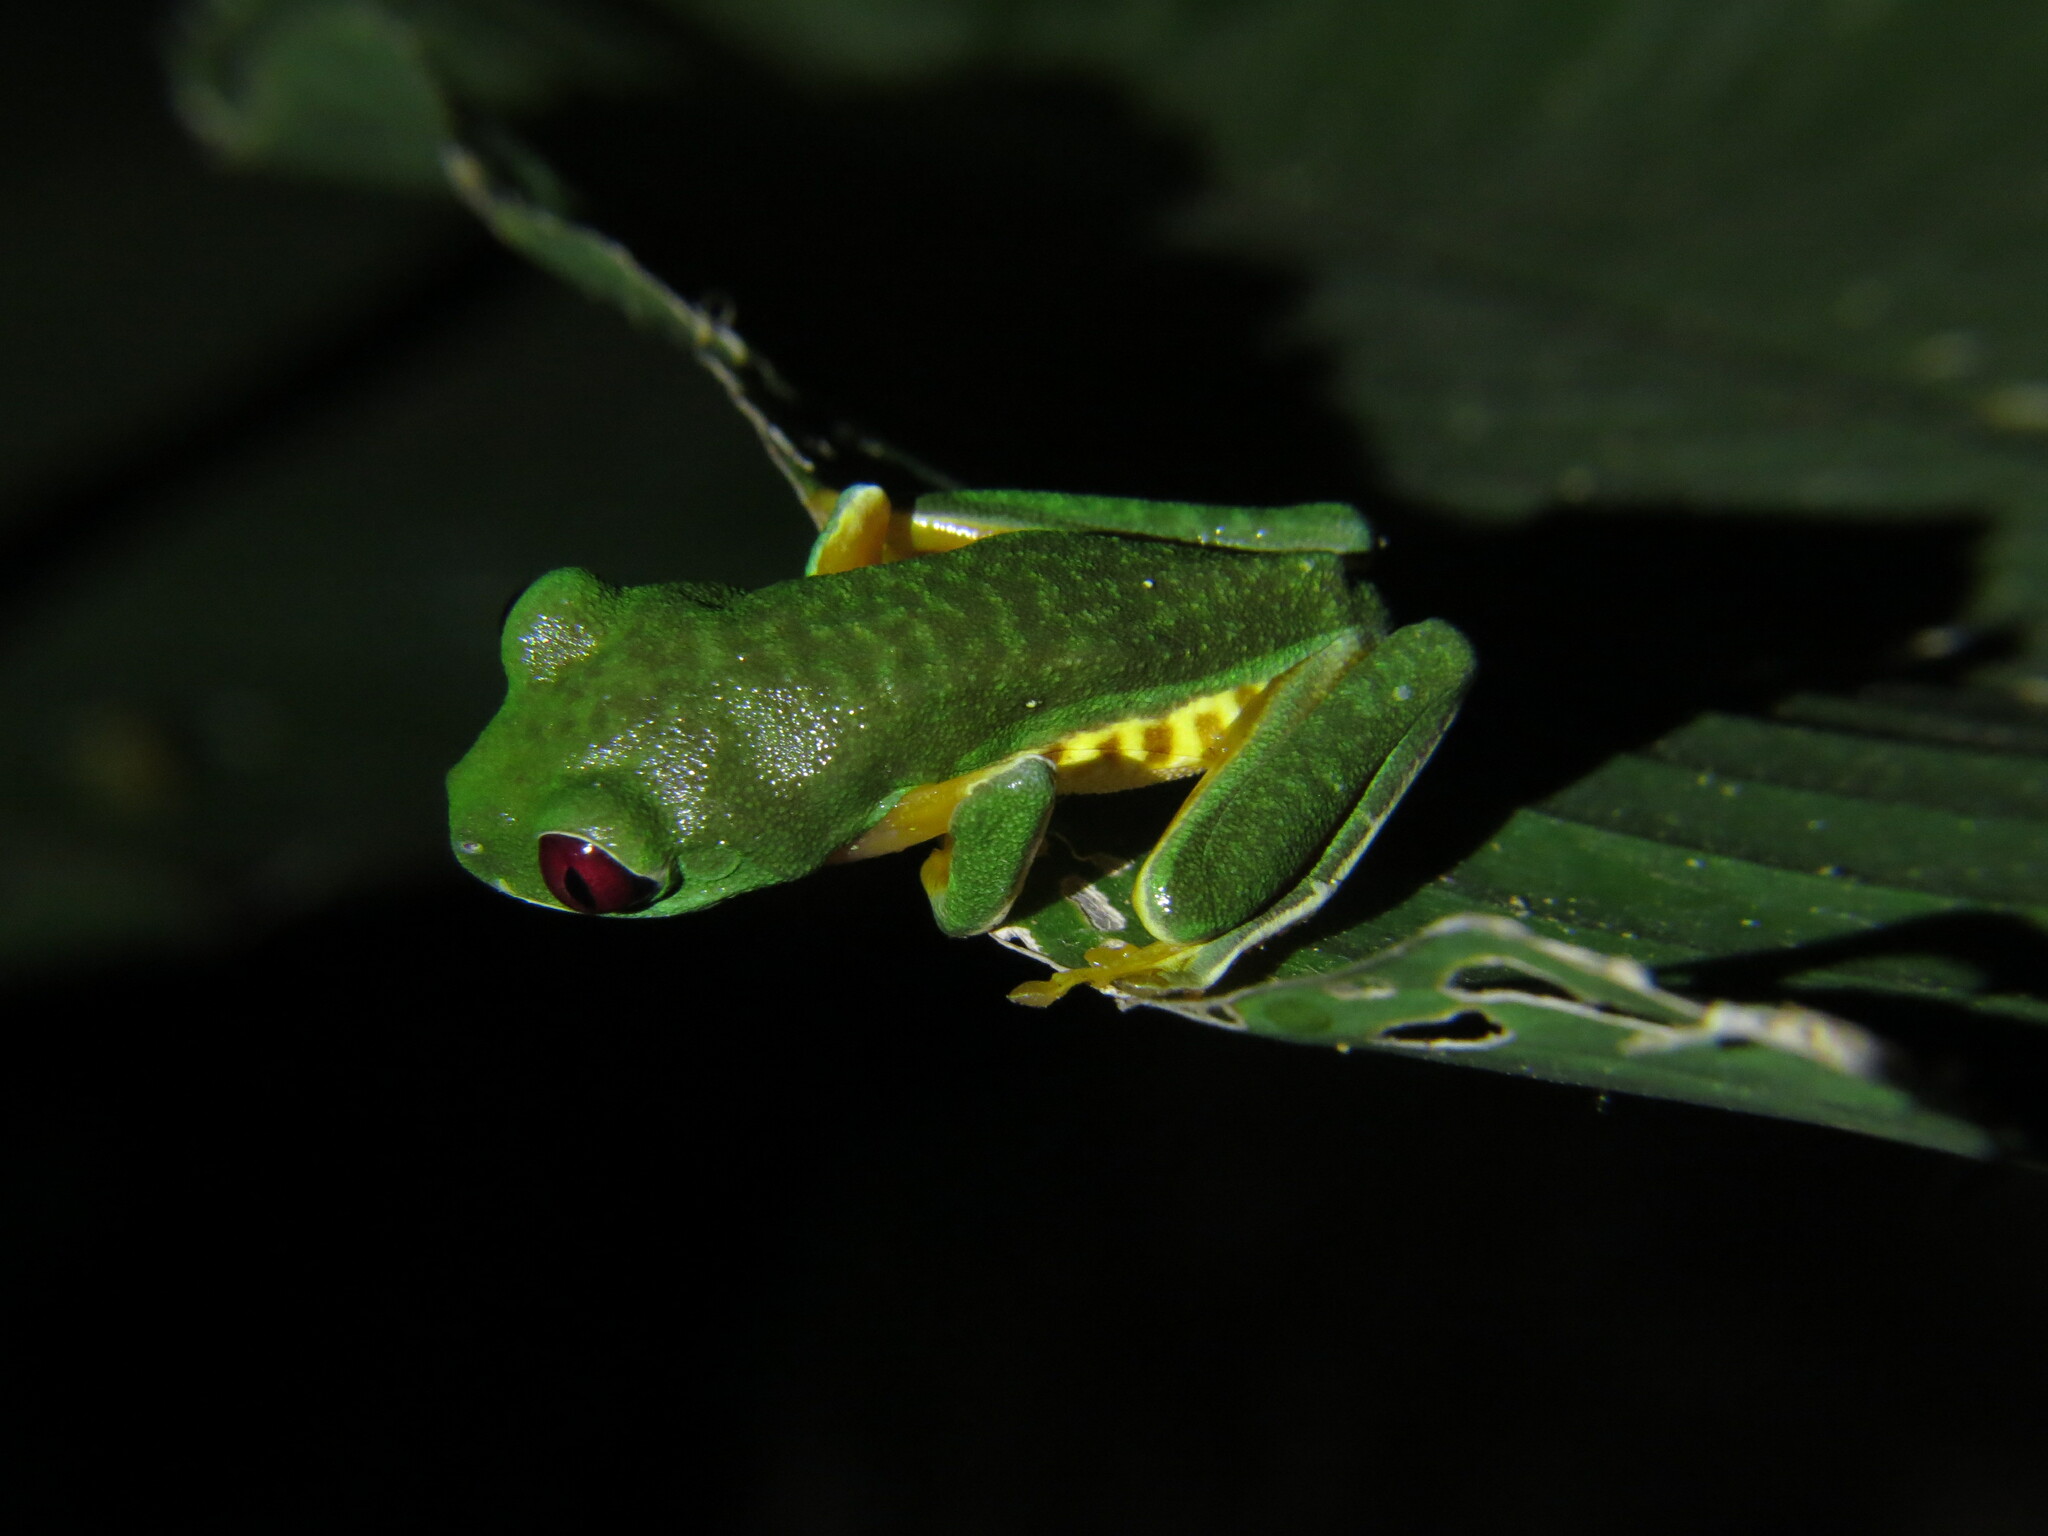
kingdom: Animalia
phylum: Chordata
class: Amphibia
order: Anura
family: Phyllomedusidae
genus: Agalychnis
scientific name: Agalychnis callidryas
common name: Red-eyed treefrog
